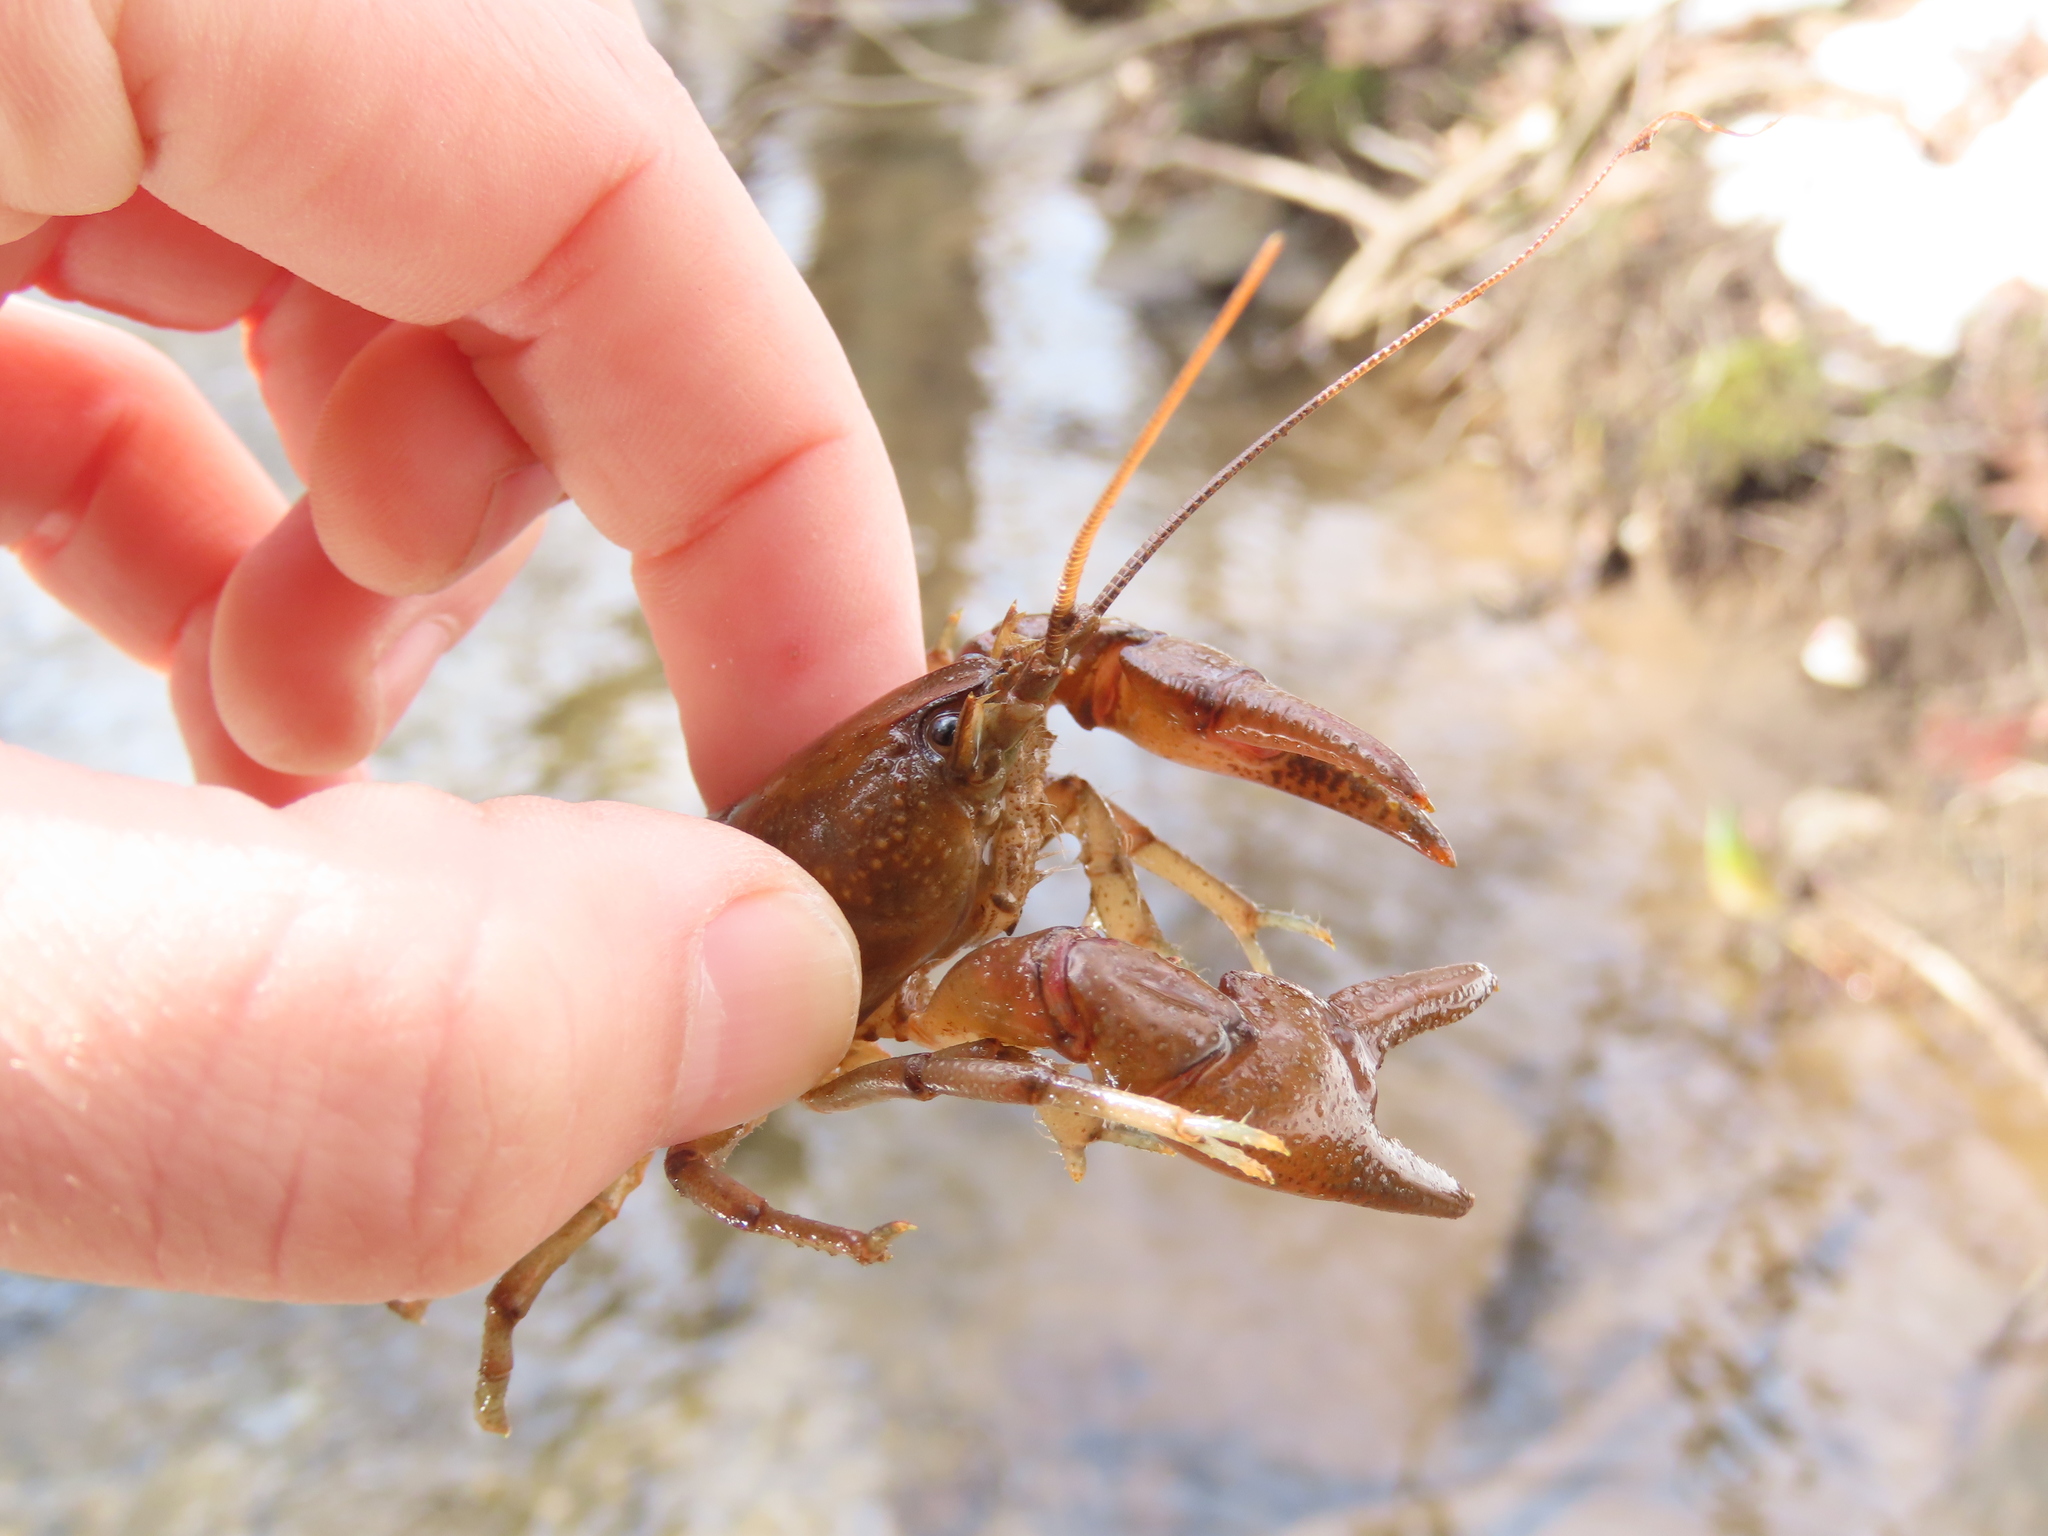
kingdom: Animalia
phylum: Arthropoda
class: Malacostraca
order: Decapoda
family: Cambaridae
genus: Cambarus
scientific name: Cambarus carinirostris
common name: Rock crayfish
